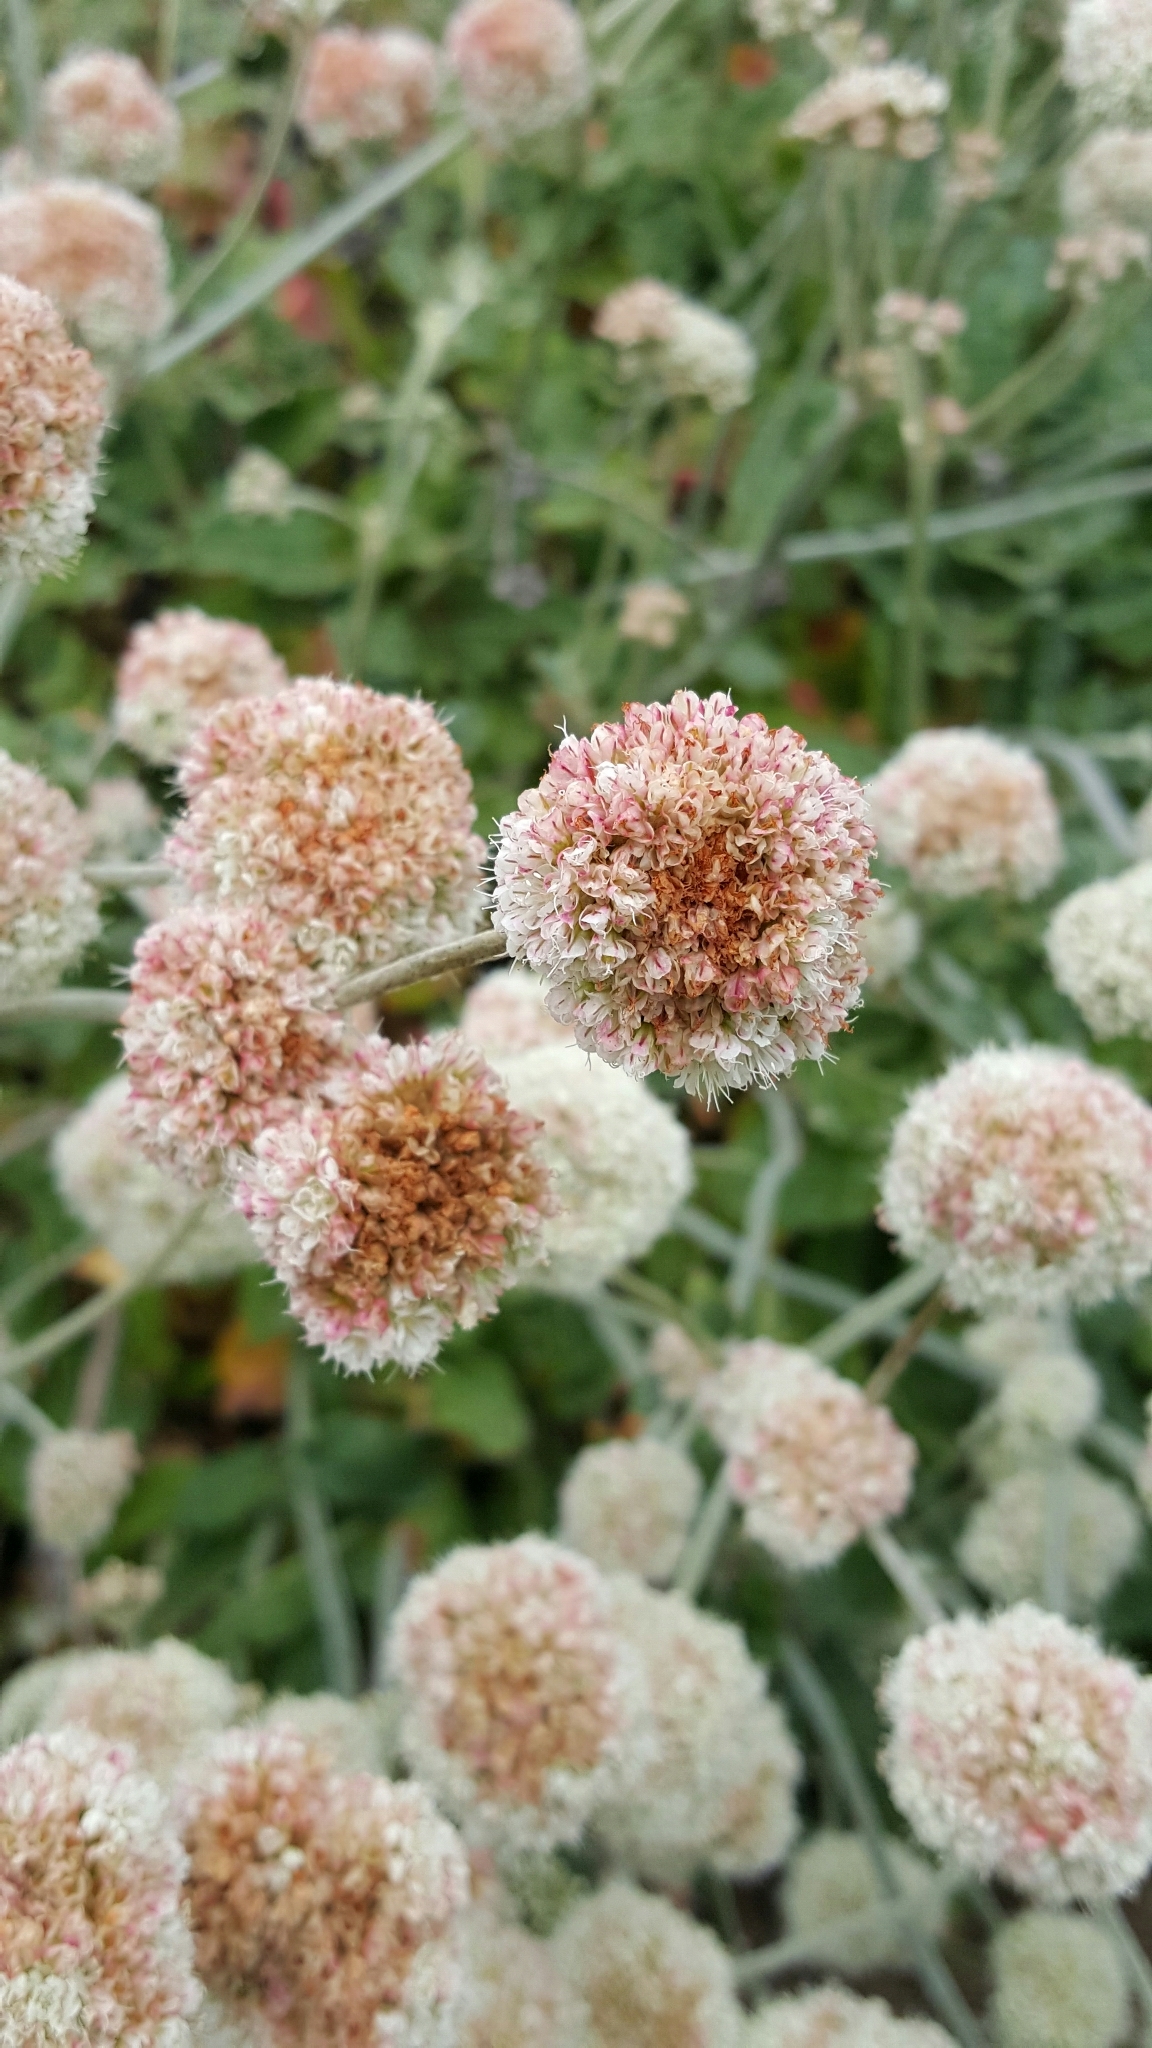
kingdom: Plantae
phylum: Tracheophyta
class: Magnoliopsida
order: Caryophyllales
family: Polygonaceae
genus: Eriogonum
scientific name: Eriogonum latifolium
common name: Seaside wild buckwheat
